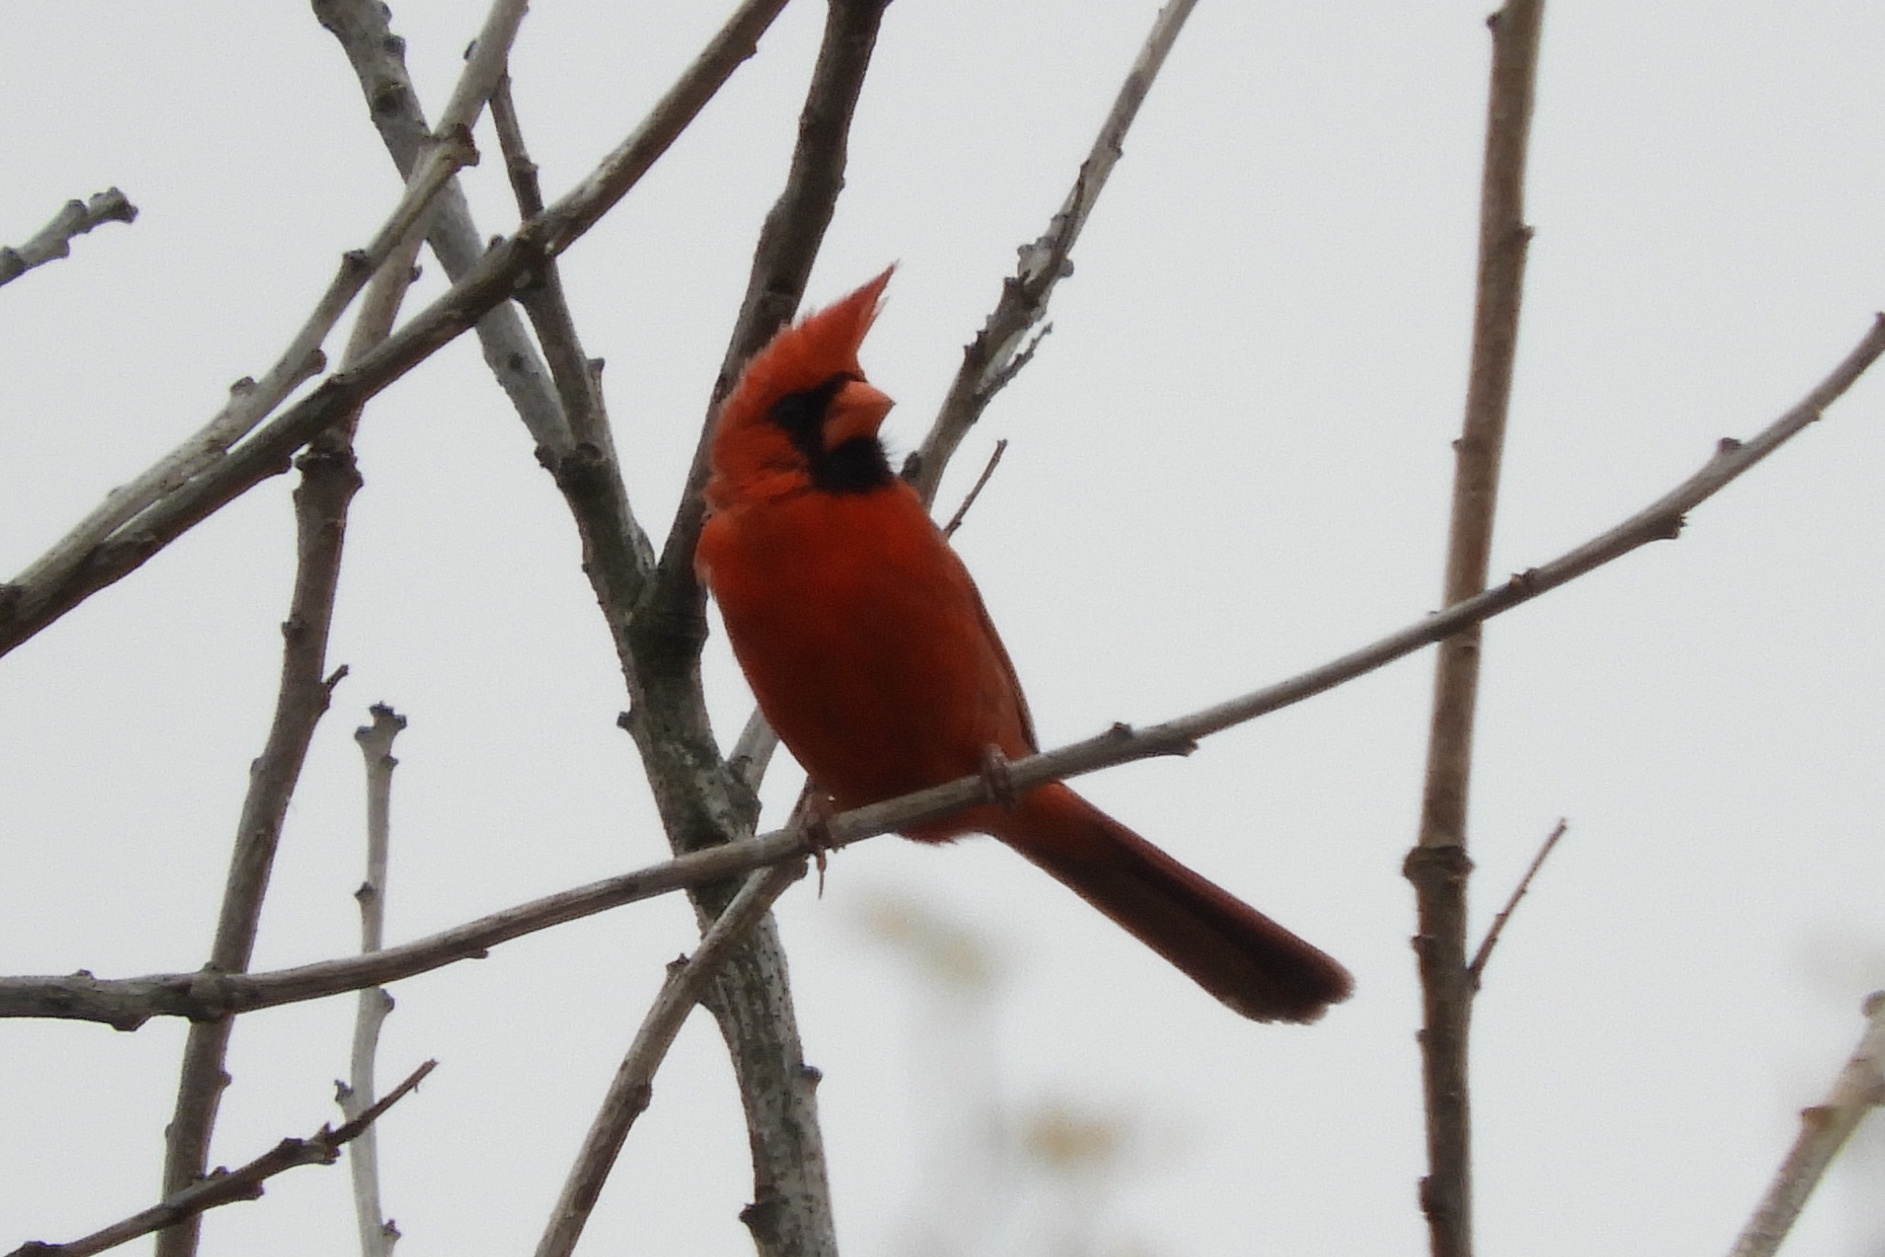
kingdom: Animalia
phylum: Chordata
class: Aves
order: Passeriformes
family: Cardinalidae
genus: Cardinalis
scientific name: Cardinalis cardinalis
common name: Northern cardinal
